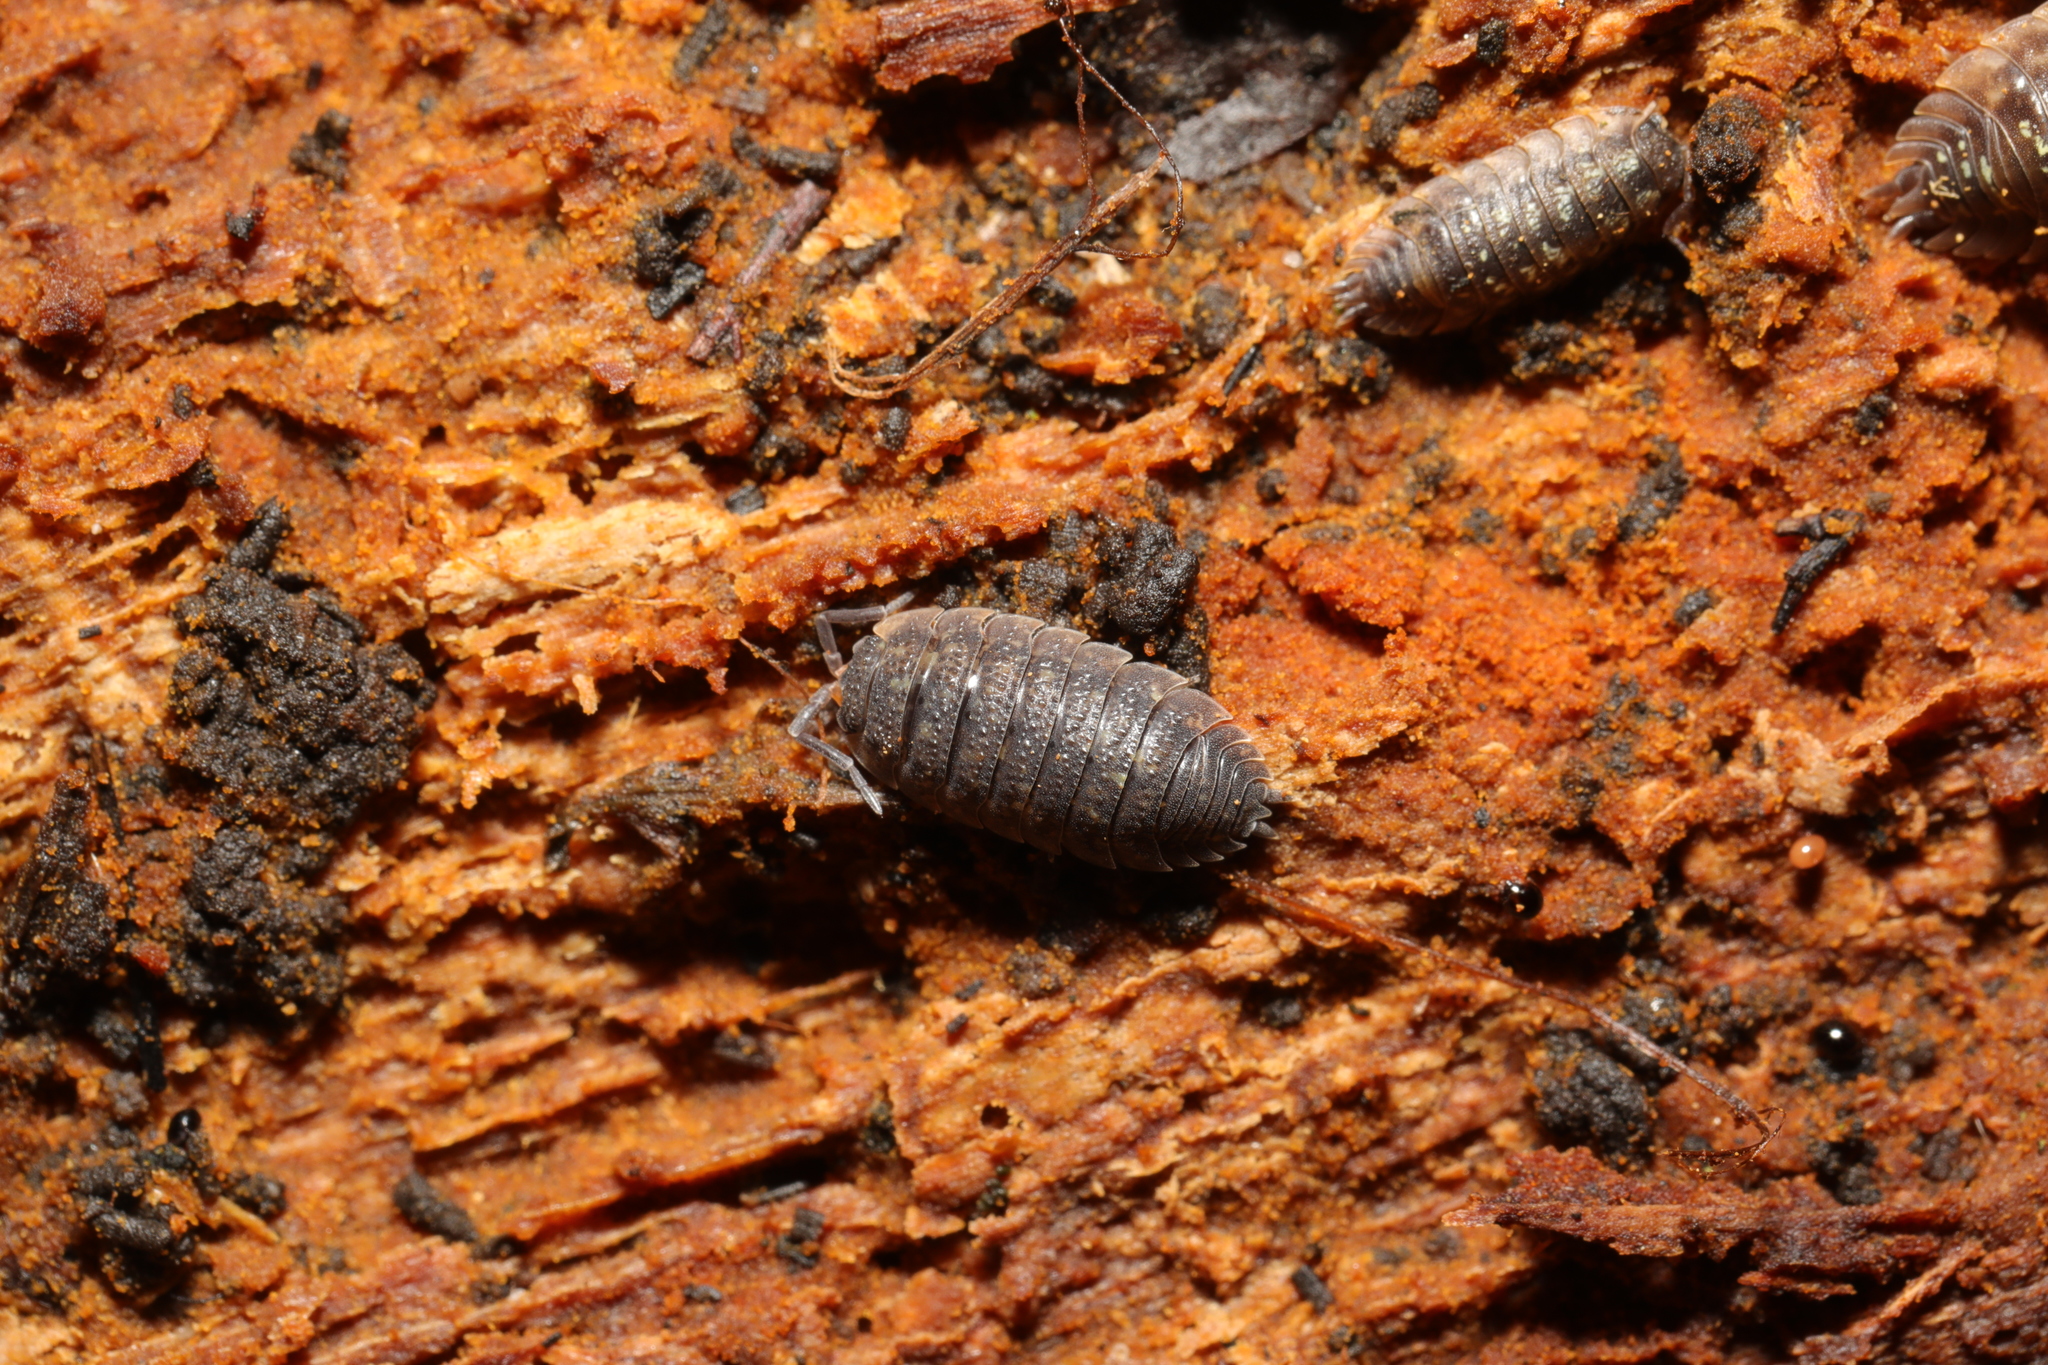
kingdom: Animalia
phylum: Arthropoda
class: Malacostraca
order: Isopoda
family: Porcellionidae
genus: Porcellio
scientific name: Porcellio scaber
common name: Common rough woodlouse
